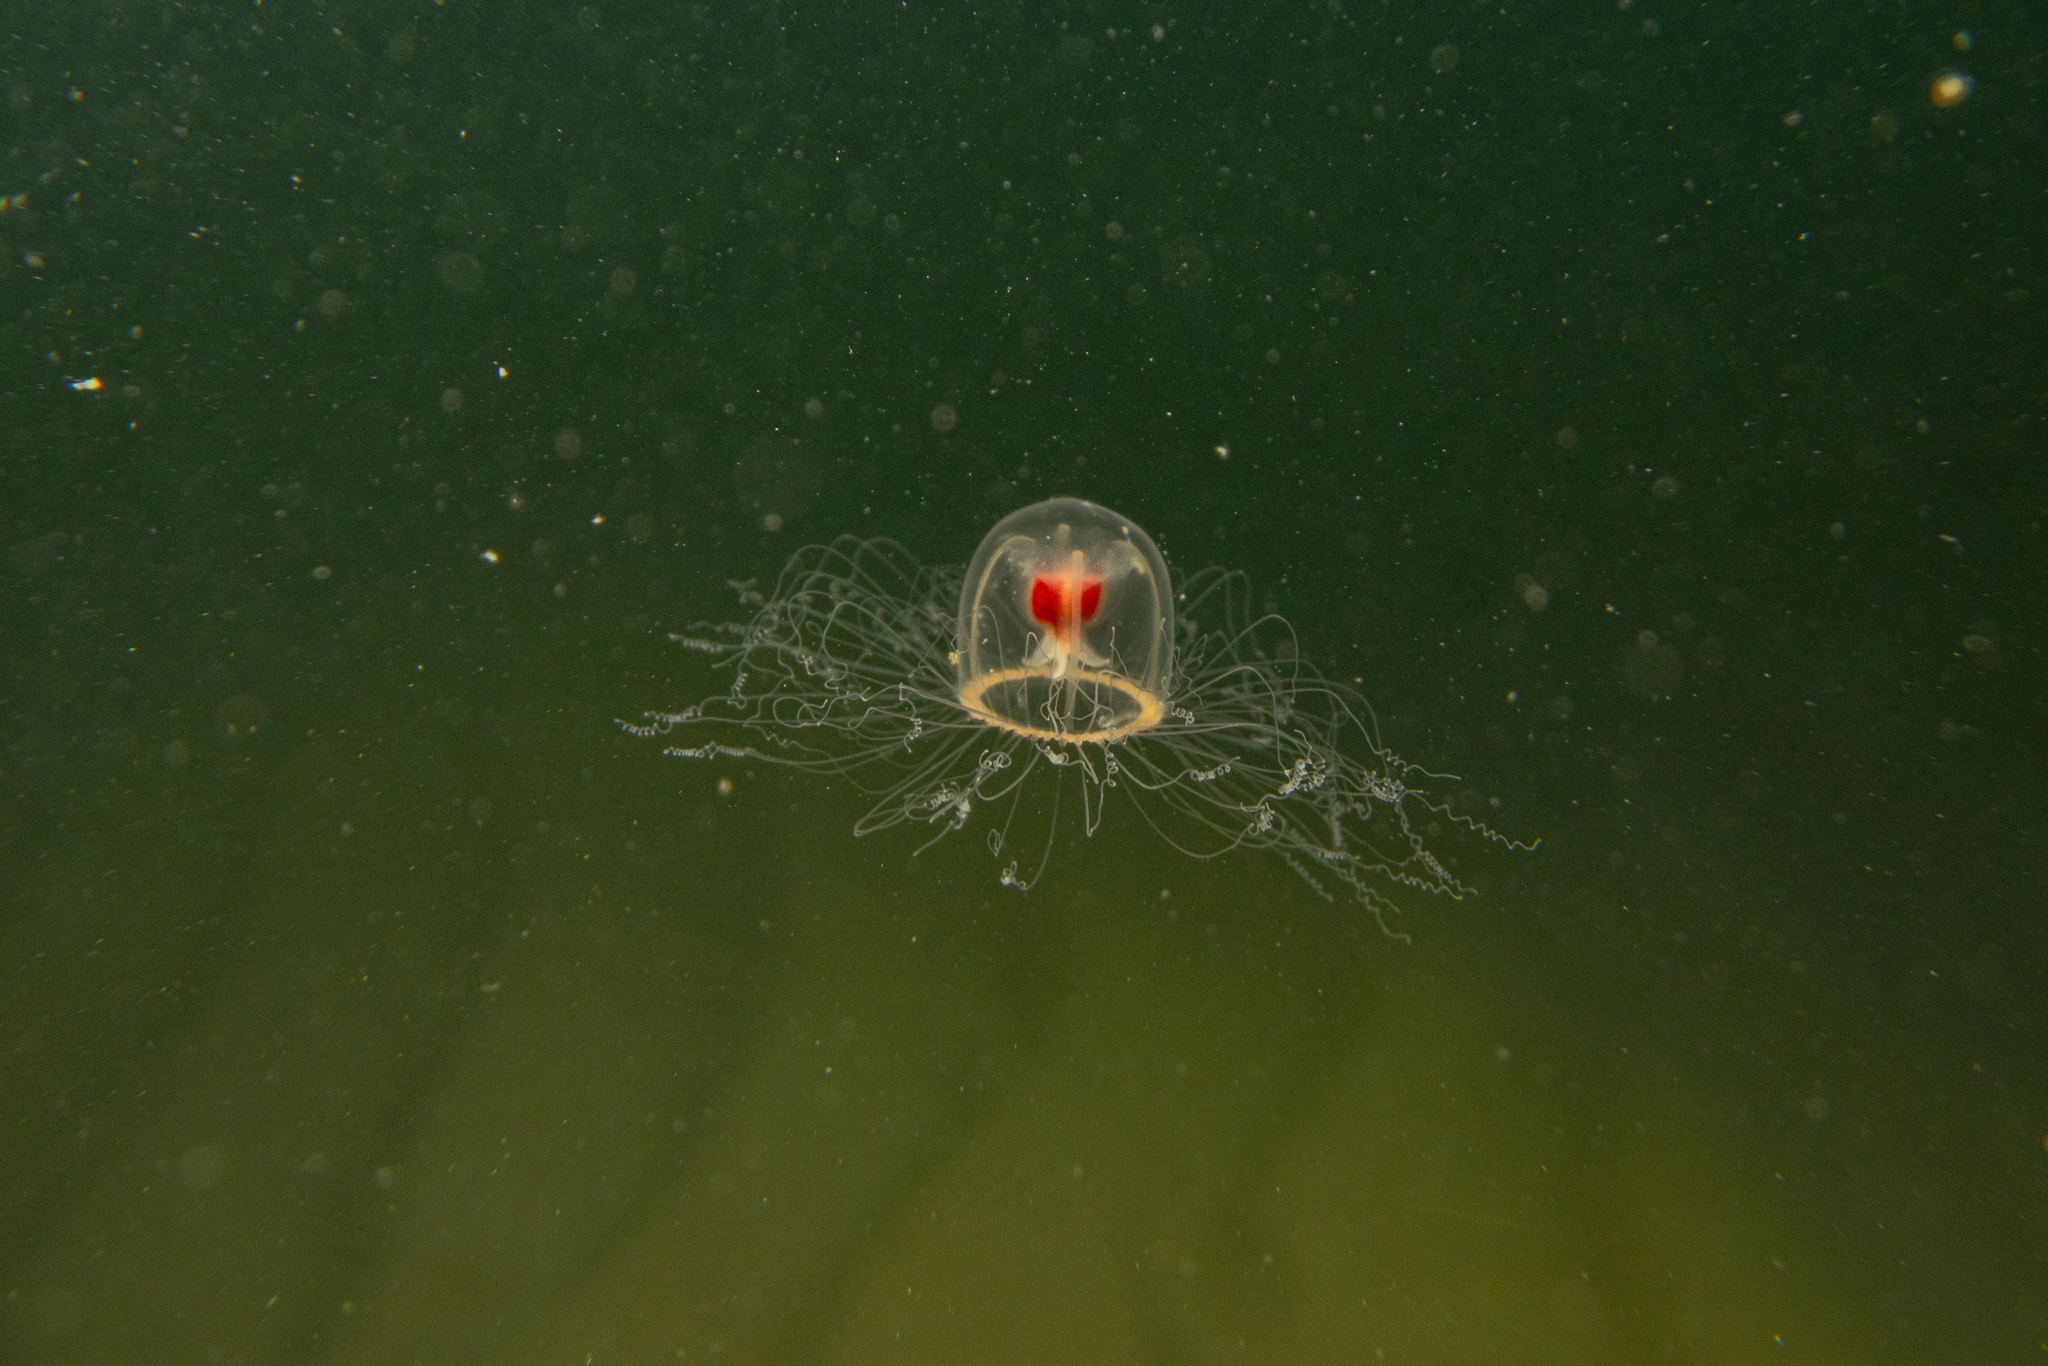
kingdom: Animalia
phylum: Cnidaria
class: Hydrozoa
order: Anthoathecata
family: Oceaniidae
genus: Turritopsis
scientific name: Turritopsis rubra
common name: Crimson jelly
